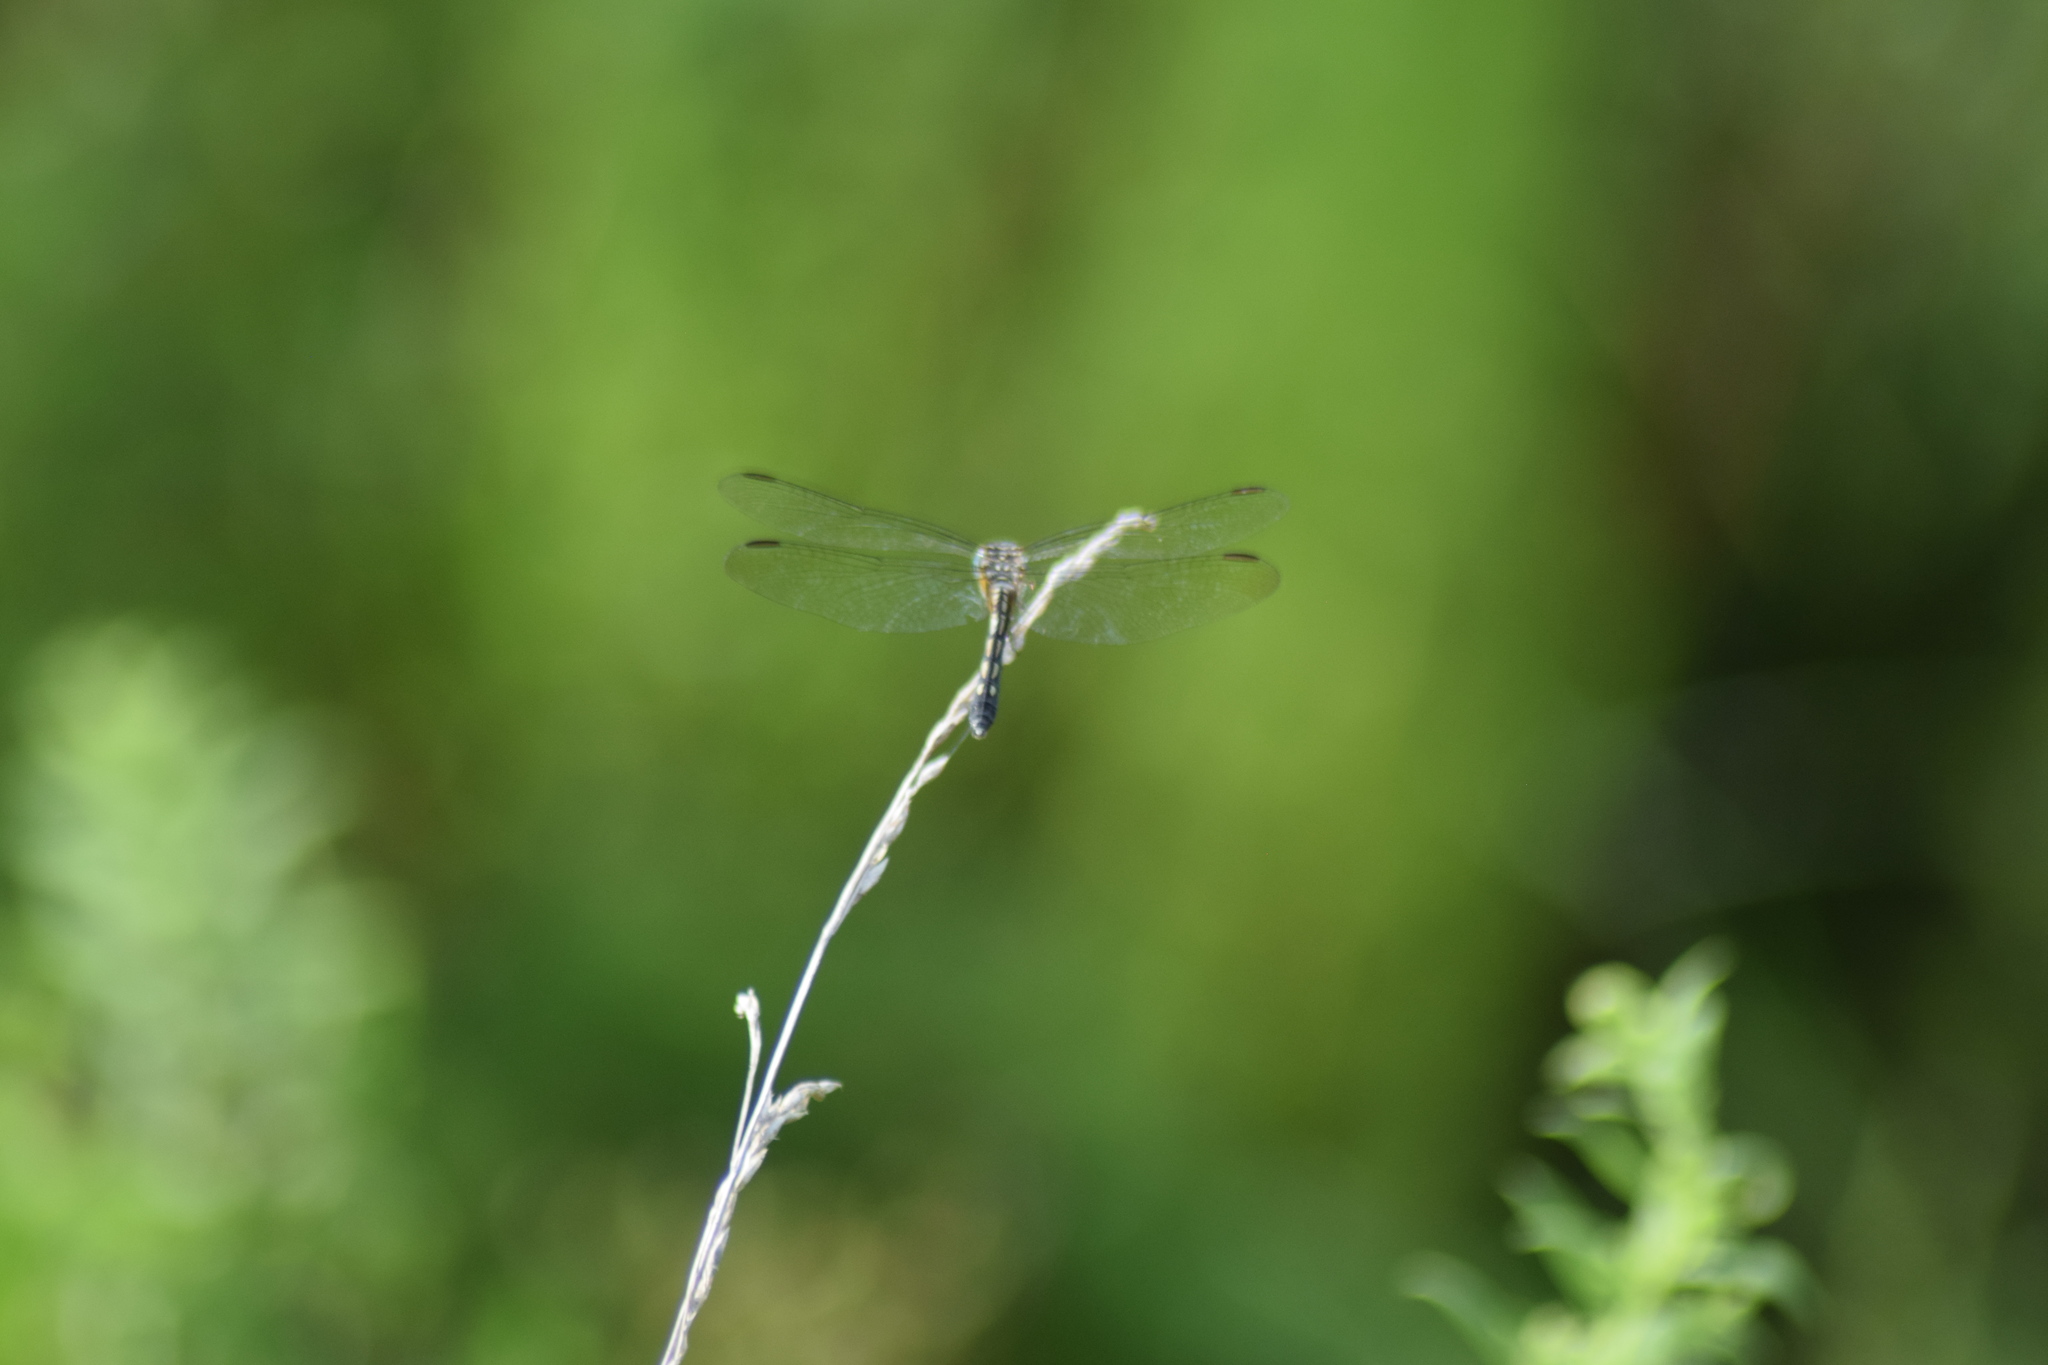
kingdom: Animalia
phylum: Arthropoda
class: Insecta
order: Odonata
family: Libellulidae
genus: Pachydiplax
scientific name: Pachydiplax longipennis
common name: Blue dasher
